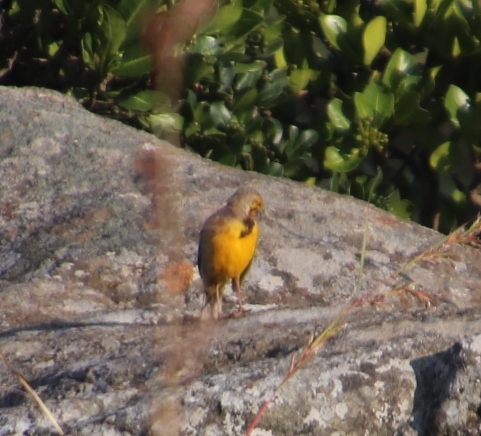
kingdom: Animalia
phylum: Chordata
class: Aves
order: Passeriformes
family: Motacillidae
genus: Macronyx
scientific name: Macronyx croceus
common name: Yellow-throated longclaw
